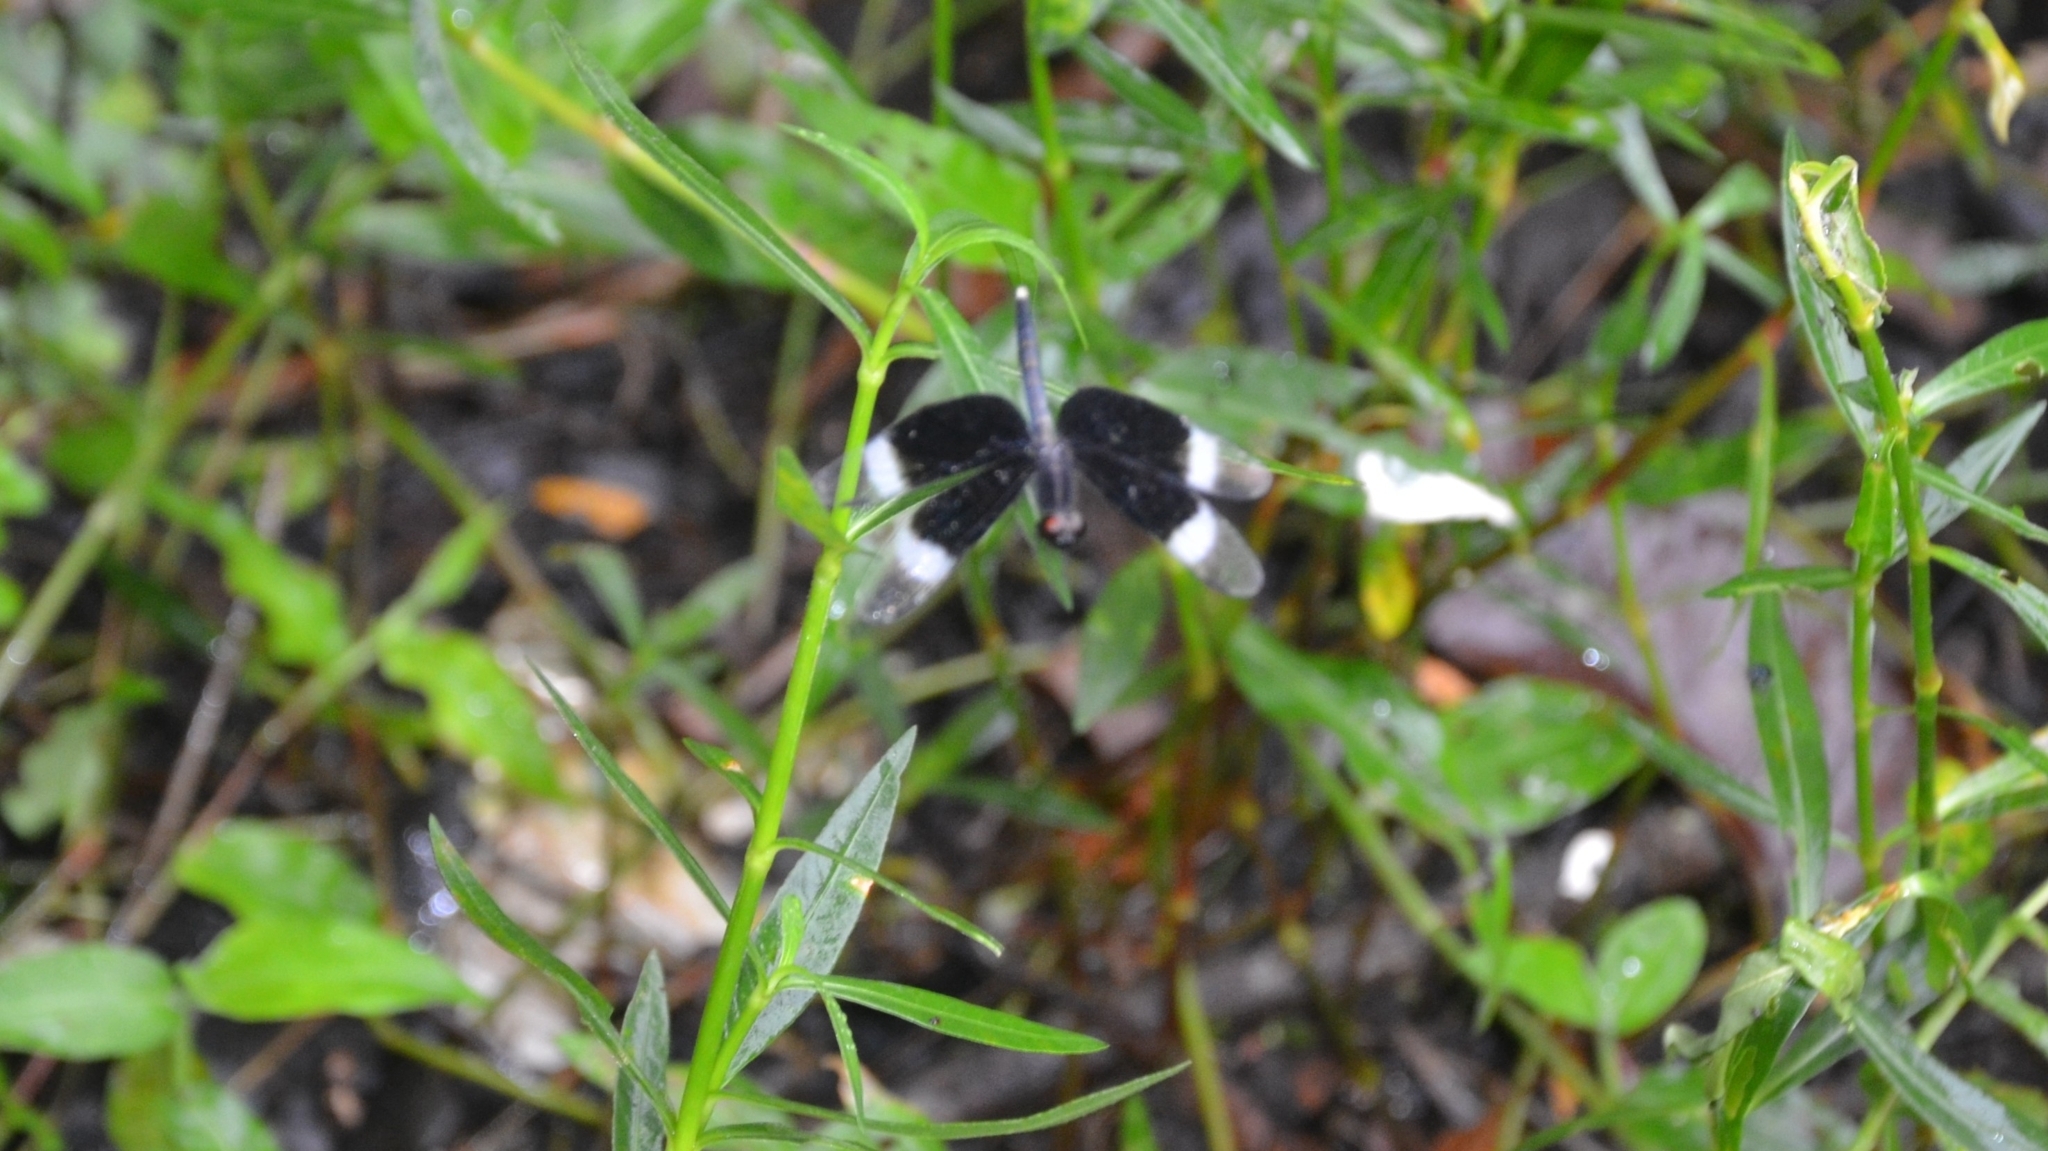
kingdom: Animalia
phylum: Arthropoda
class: Insecta
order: Odonata
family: Libellulidae
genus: Neurothemis
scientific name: Neurothemis tullia
